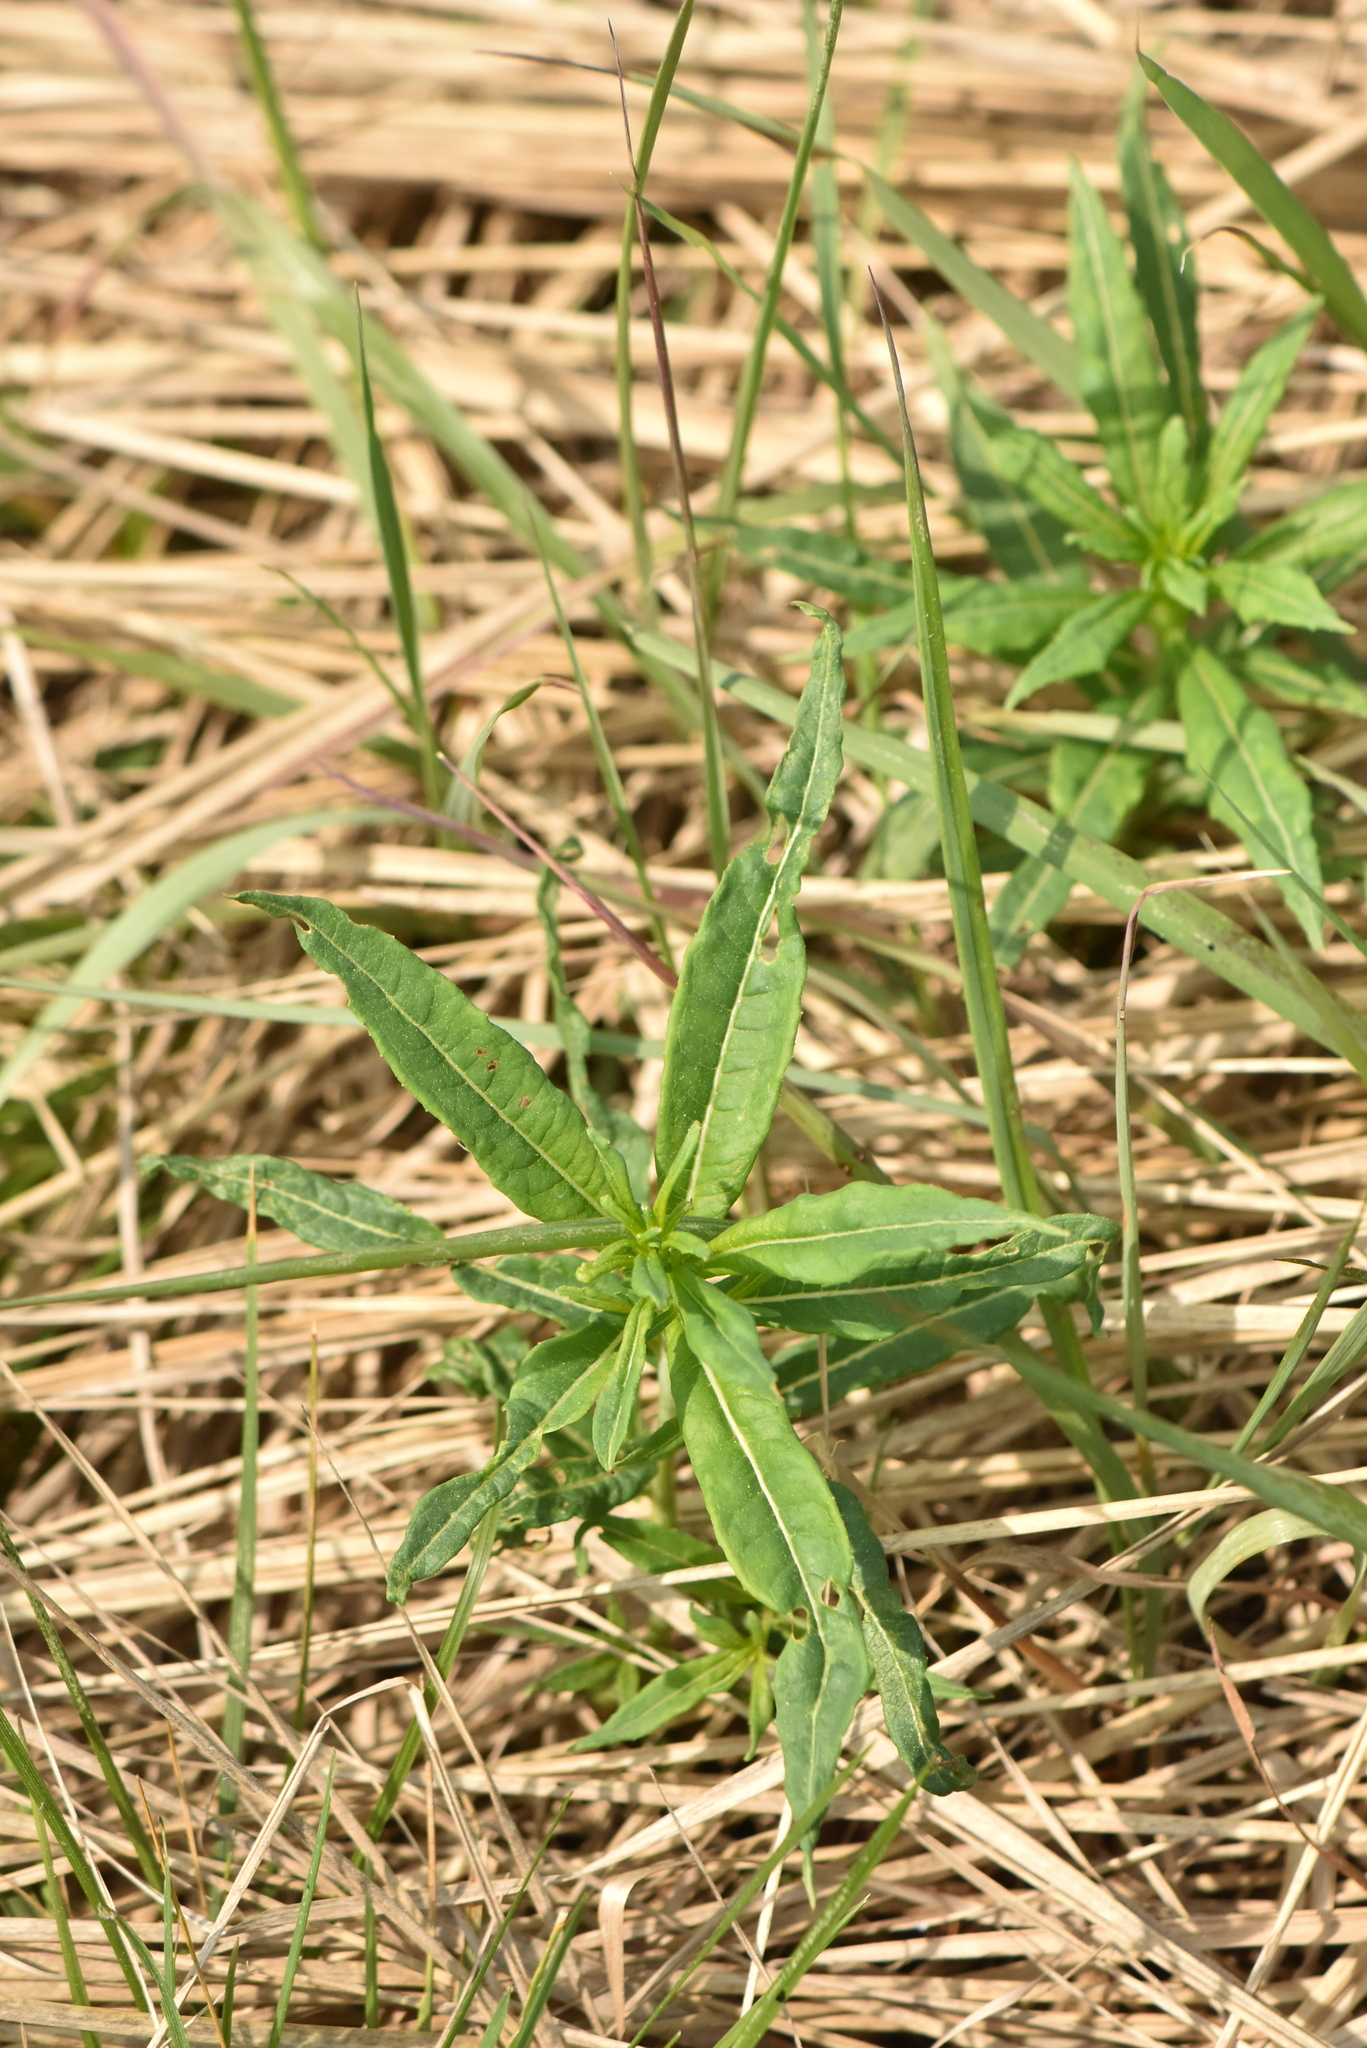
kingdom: Plantae
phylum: Tracheophyta
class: Magnoliopsida
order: Myrtales
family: Onagraceae
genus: Chamaenerion
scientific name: Chamaenerion angustifolium
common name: Fireweed
